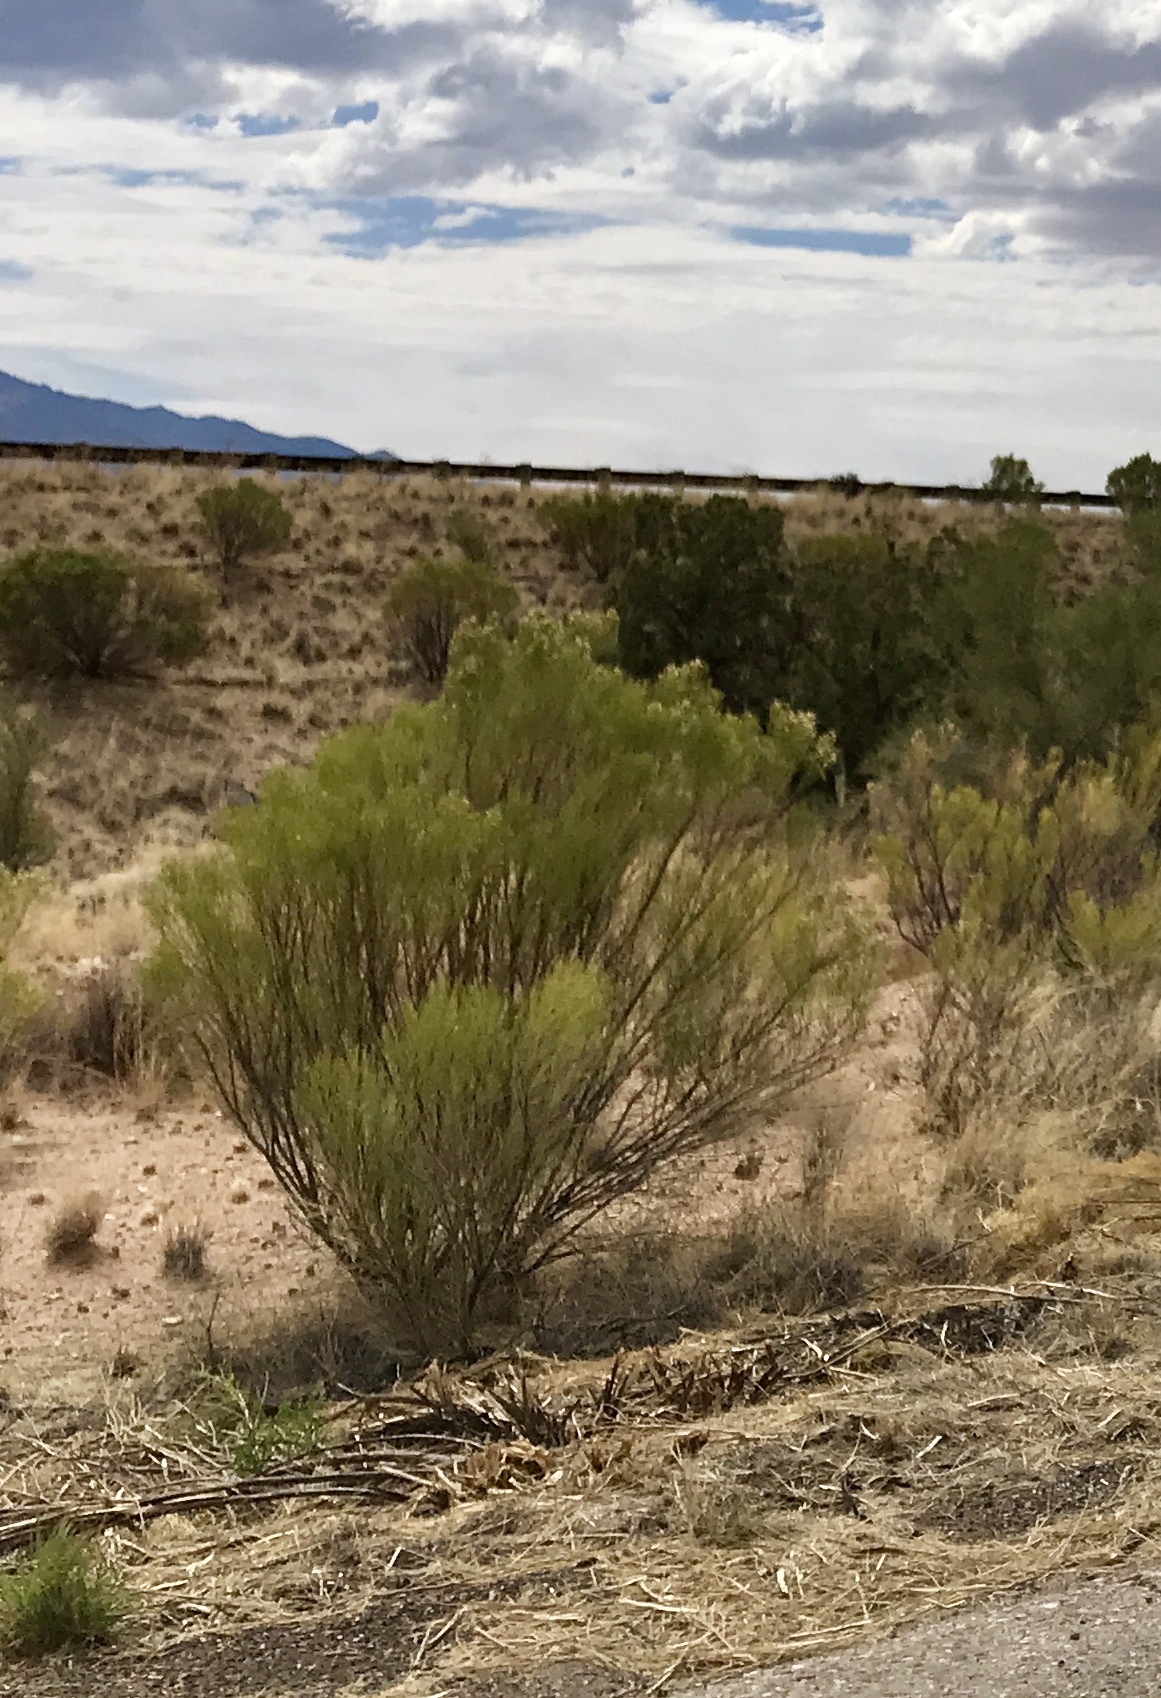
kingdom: Plantae
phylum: Tracheophyta
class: Magnoliopsida
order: Asterales
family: Asteraceae
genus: Baccharis
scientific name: Baccharis sarothroides
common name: Desert-broom
